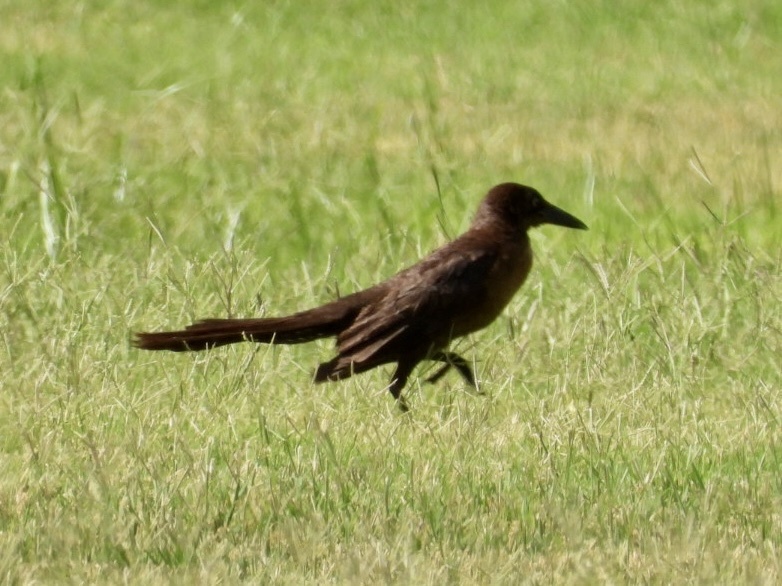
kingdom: Animalia
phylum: Chordata
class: Aves
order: Passeriformes
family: Icteridae
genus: Quiscalus
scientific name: Quiscalus mexicanus
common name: Great-tailed grackle
